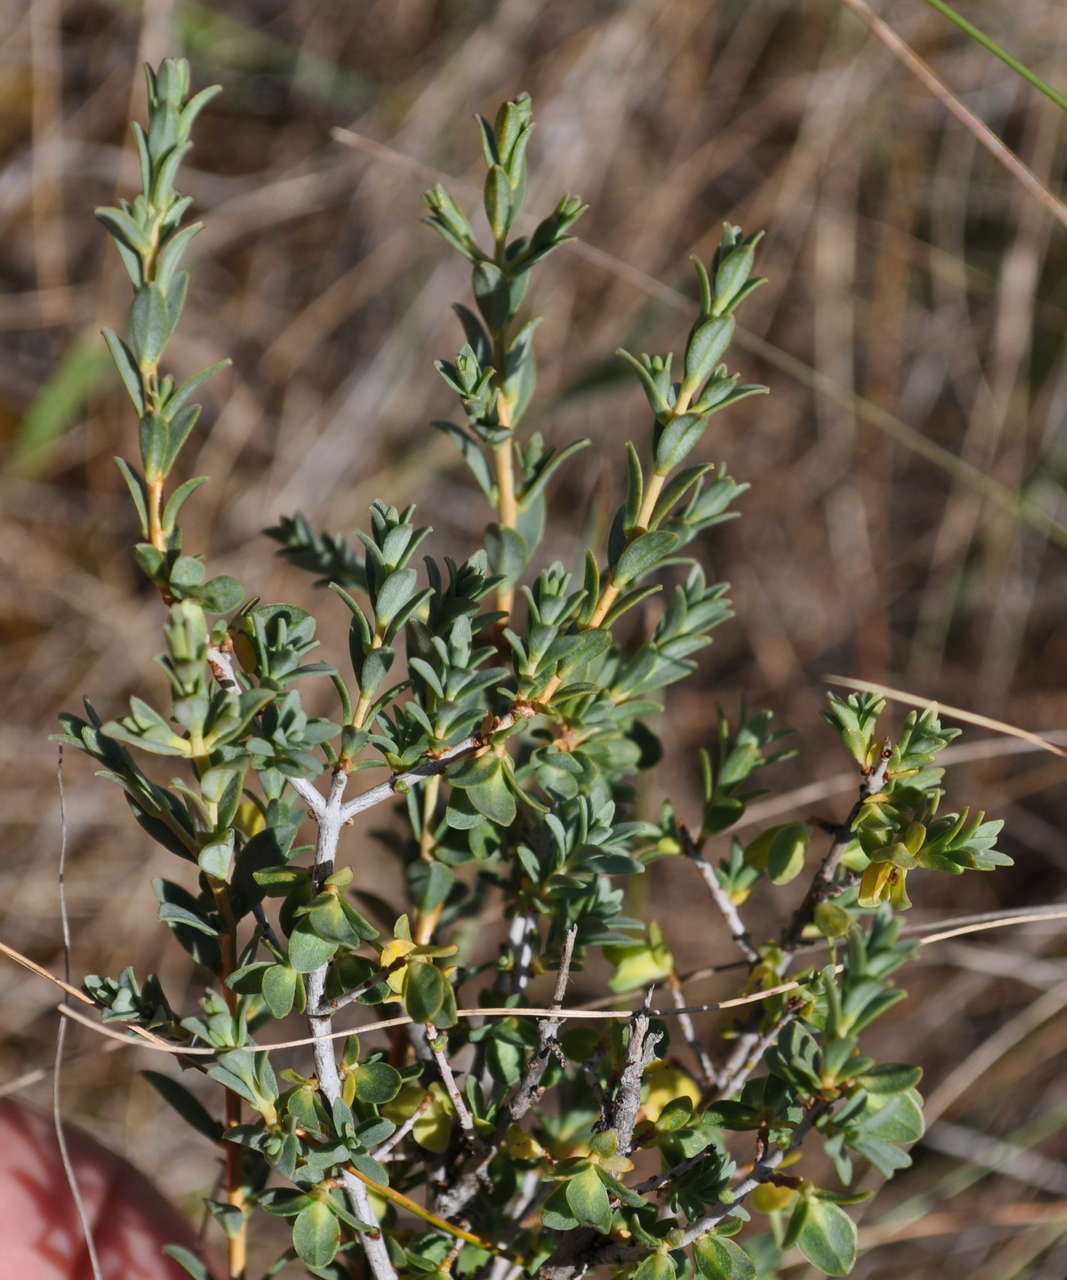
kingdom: Plantae
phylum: Tracheophyta
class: Magnoliopsida
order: Malvales
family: Thymelaeaceae
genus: Pimelea
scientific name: Pimelea spinescens
